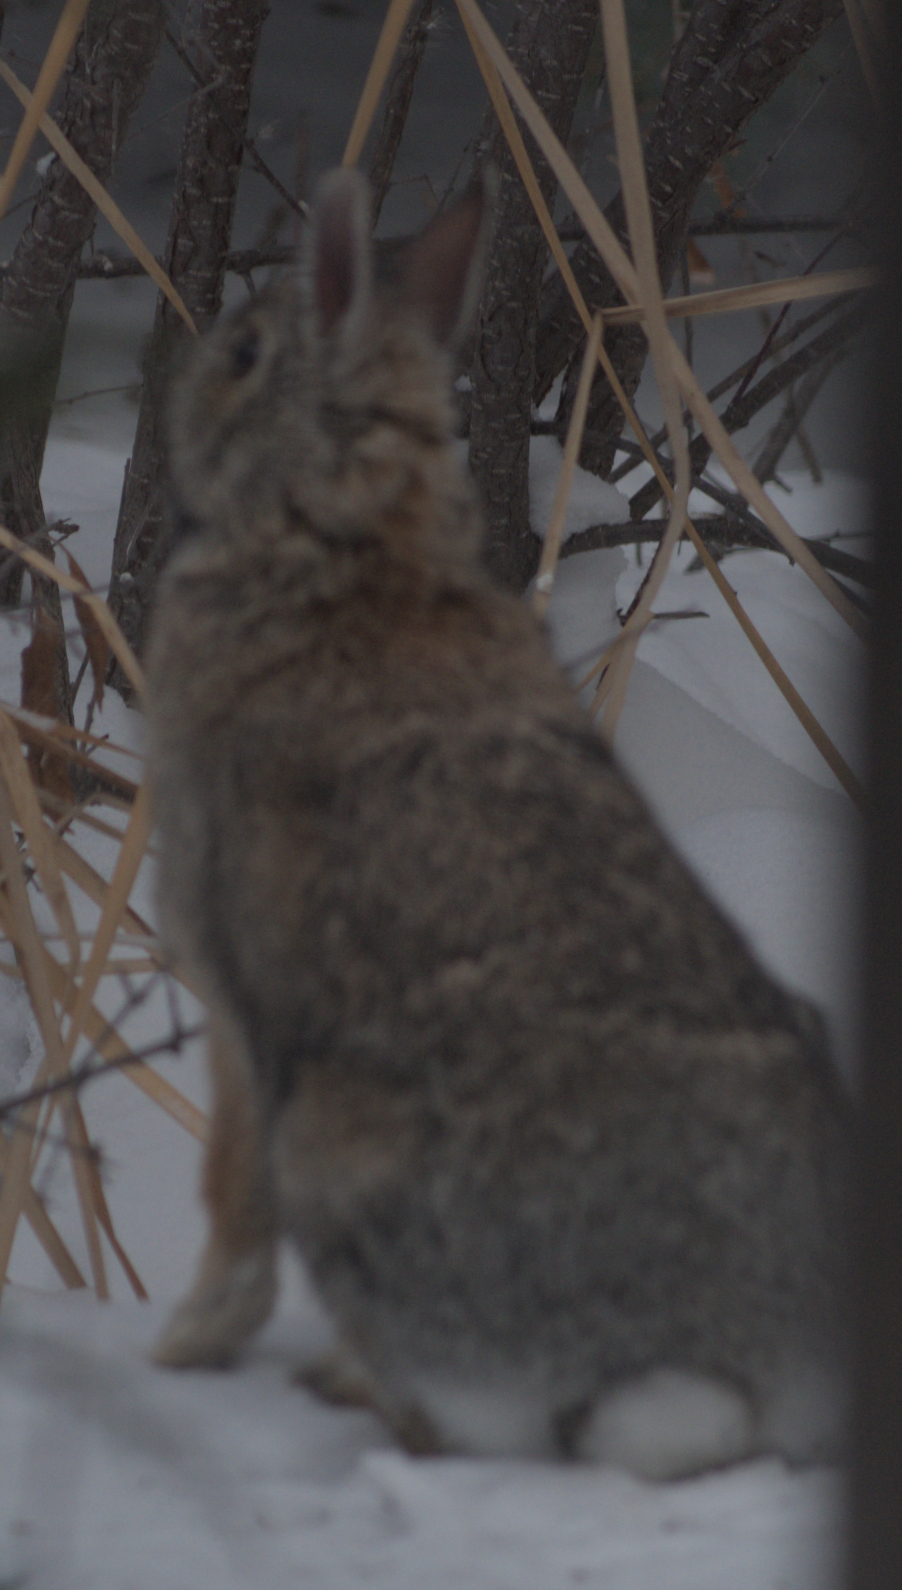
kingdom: Animalia
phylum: Chordata
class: Mammalia
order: Lagomorpha
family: Leporidae
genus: Sylvilagus
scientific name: Sylvilagus floridanus
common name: Eastern cottontail
